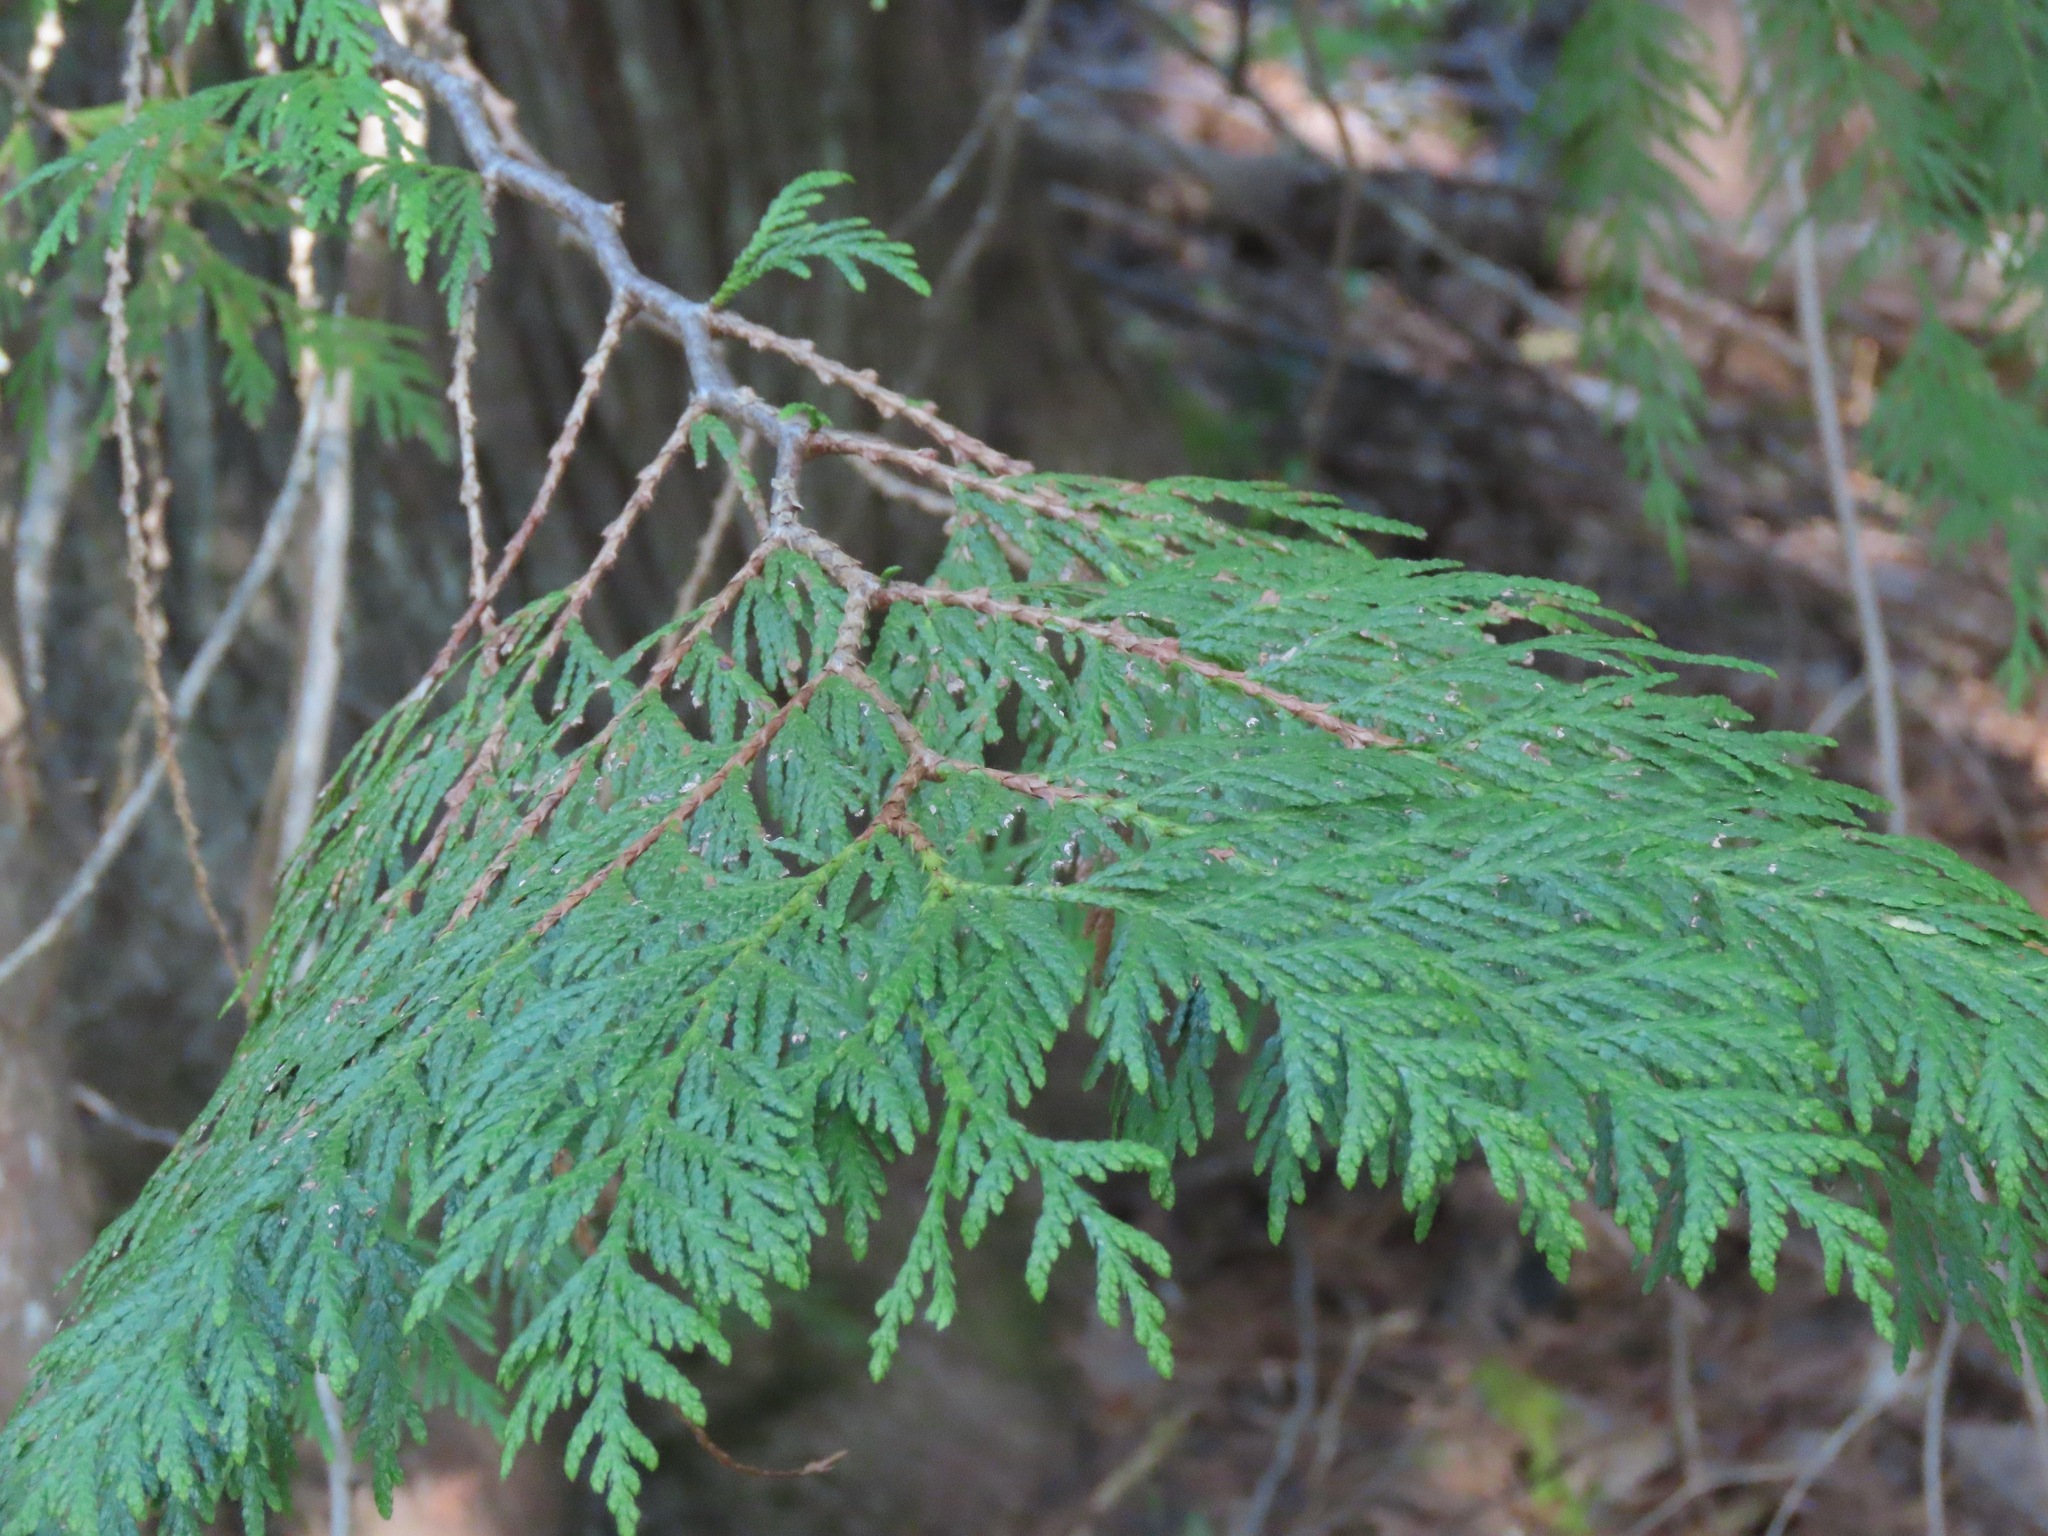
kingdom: Plantae
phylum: Tracheophyta
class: Pinopsida
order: Pinales
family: Cupressaceae
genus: Thuja
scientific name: Thuja plicata
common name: Western red-cedar
